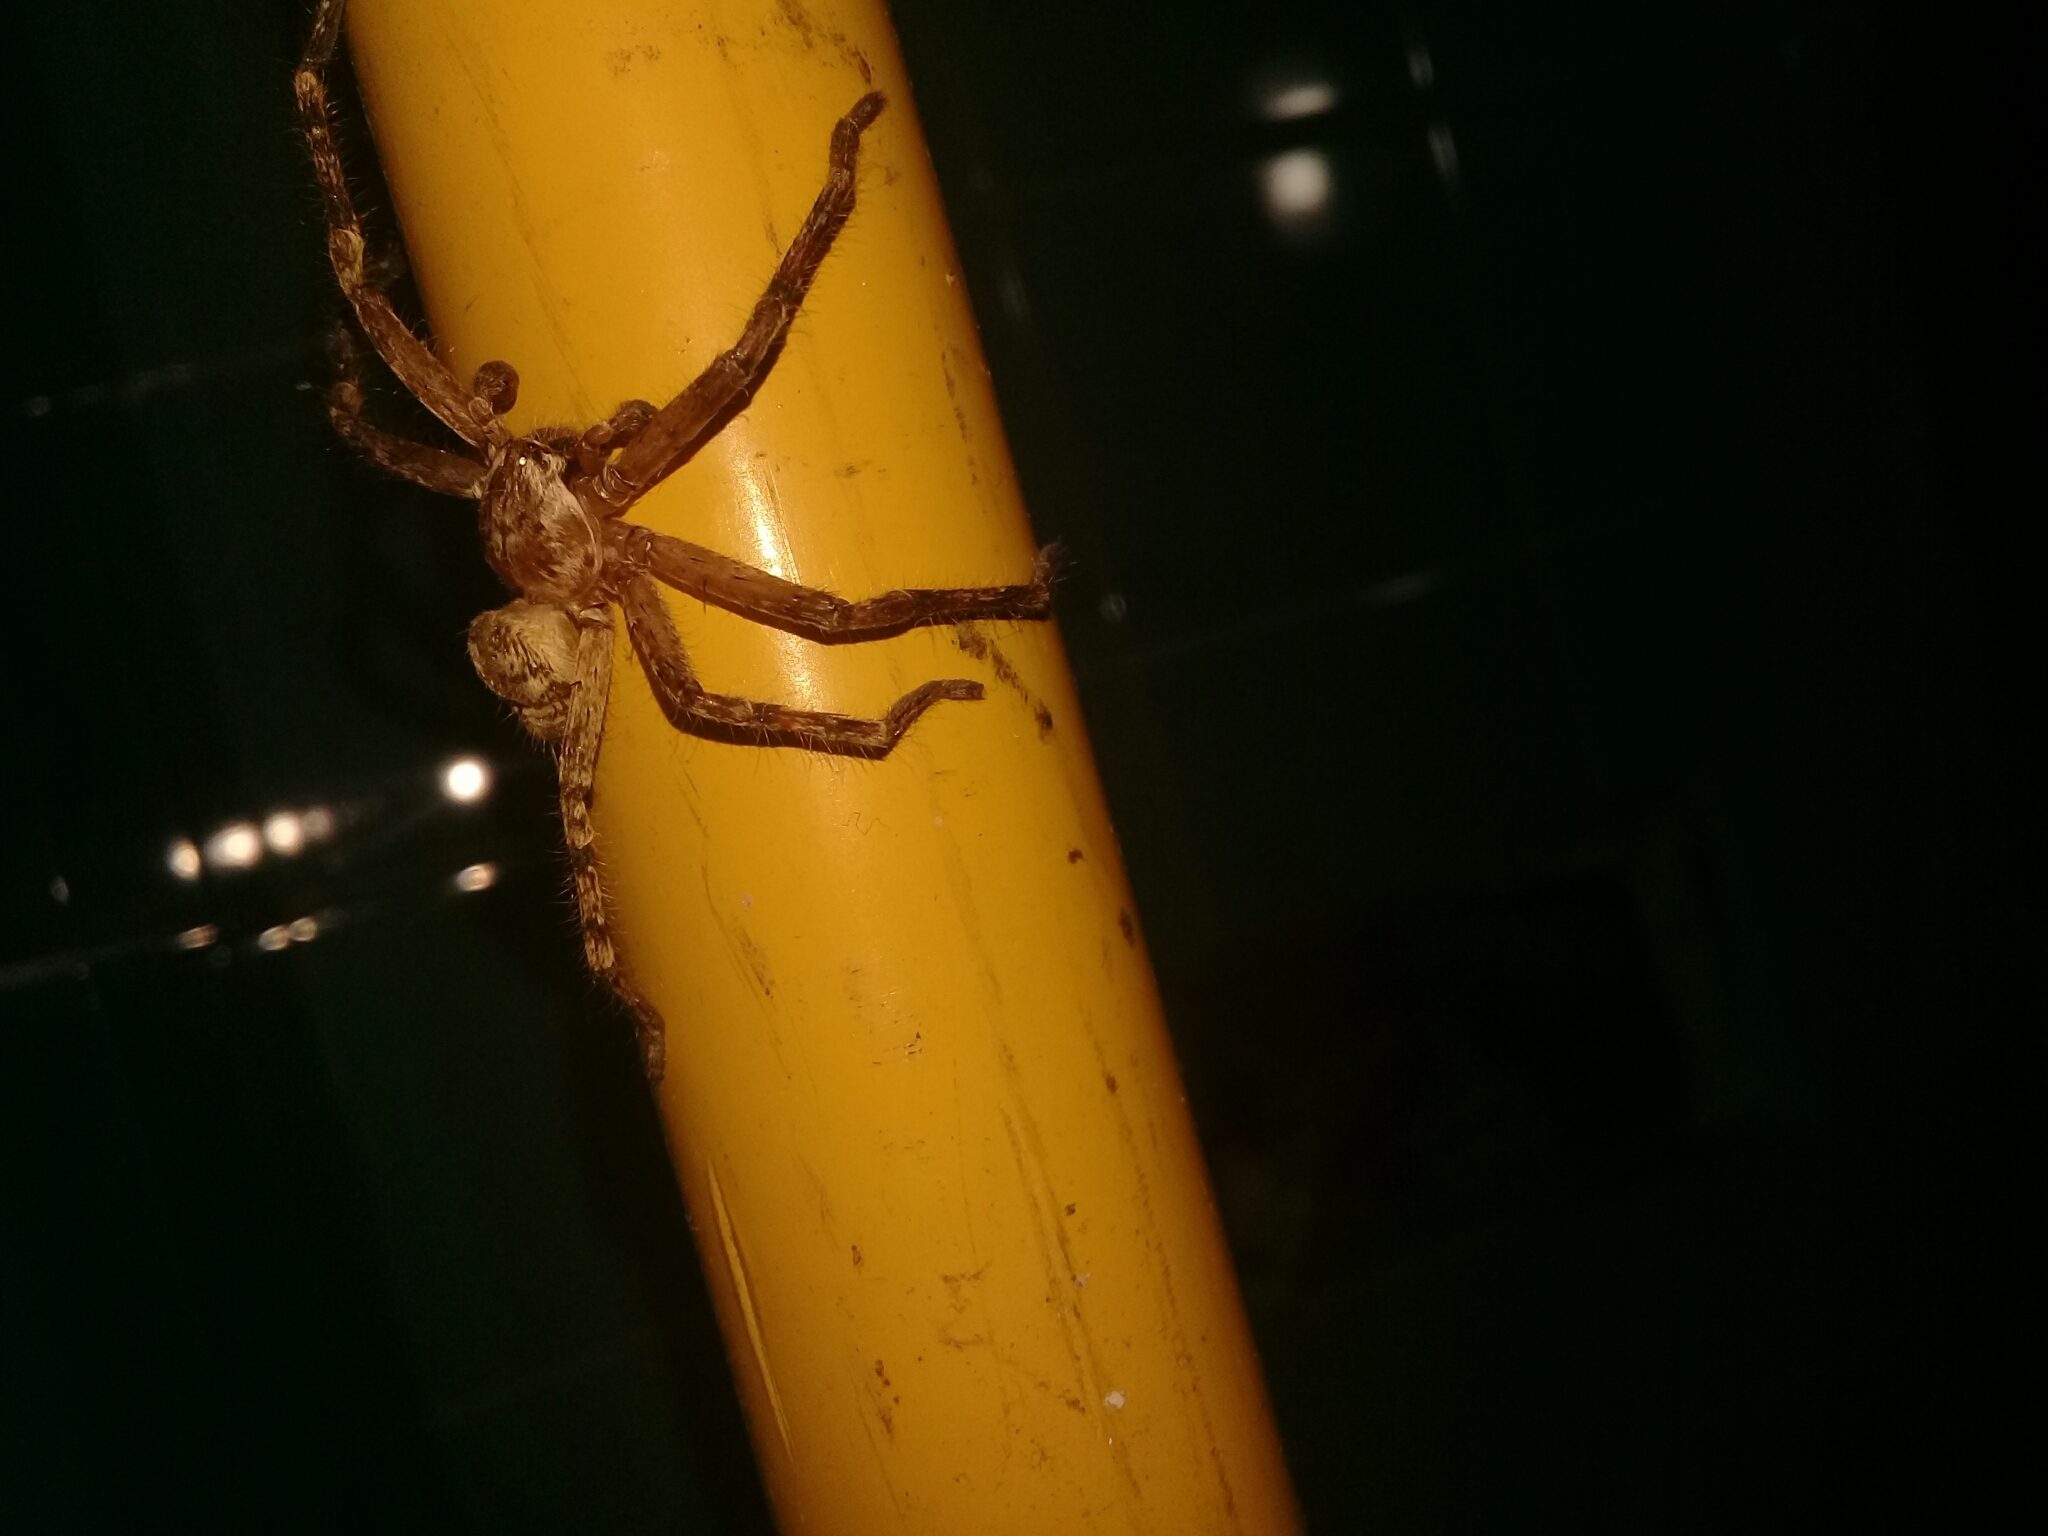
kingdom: Animalia
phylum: Arthropoda
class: Arachnida
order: Araneae
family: Sparassidae
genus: Polybetes
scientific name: Polybetes rapidus
